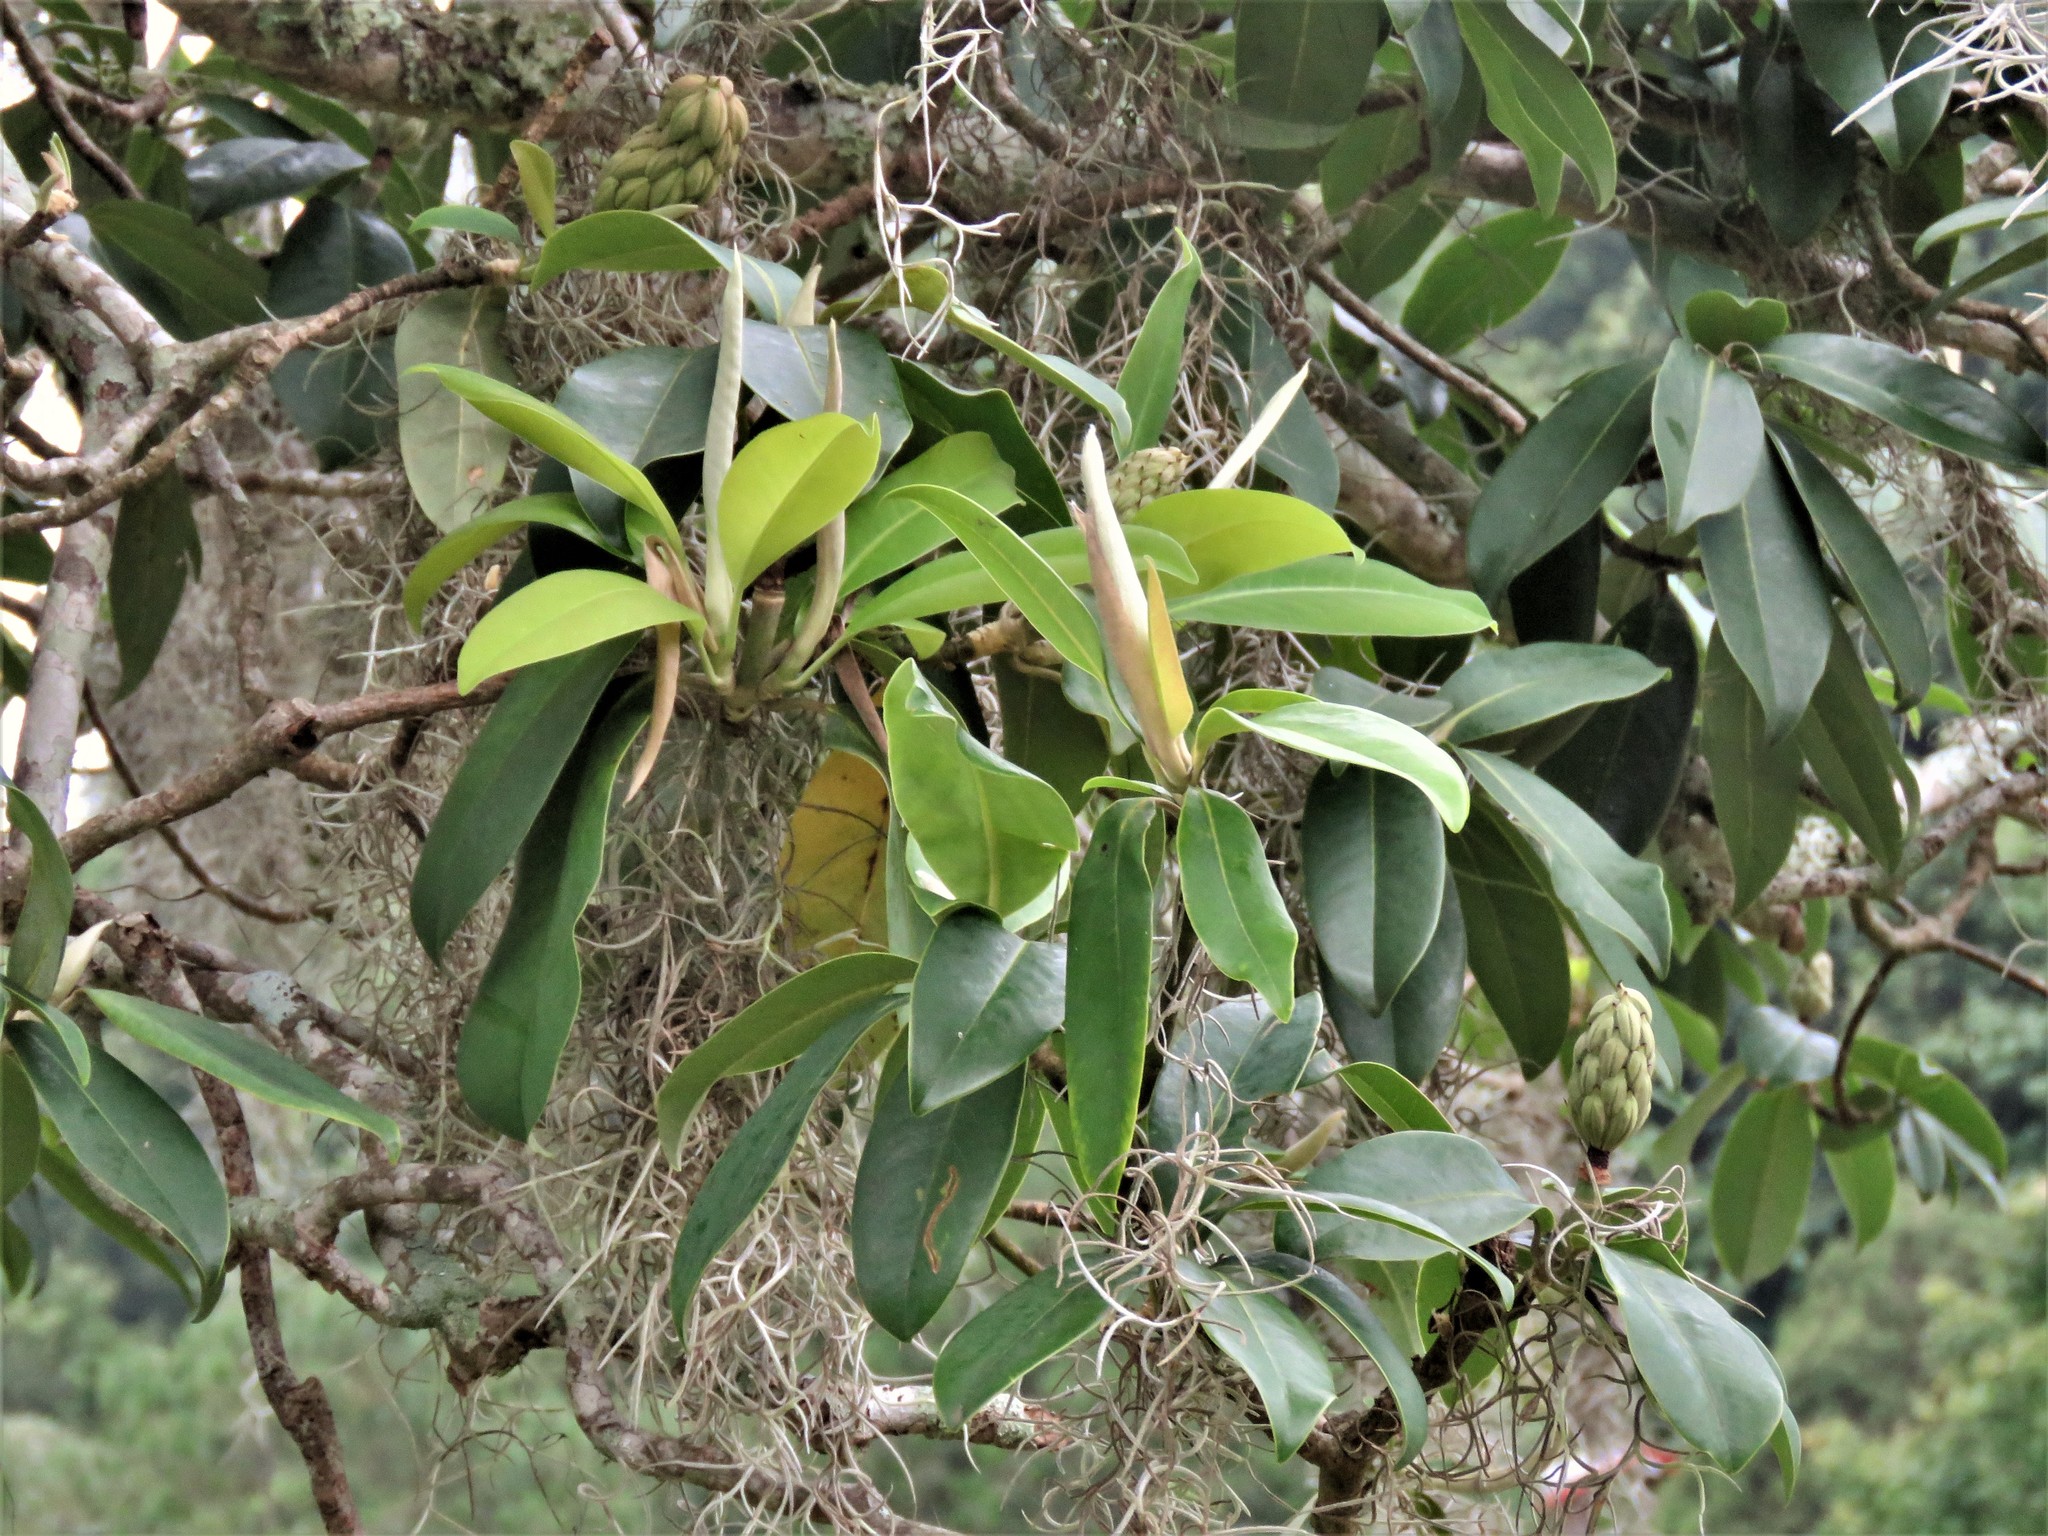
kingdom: Plantae
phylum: Tracheophyta
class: Magnoliopsida
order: Magnoliales
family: Magnoliaceae
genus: Magnolia
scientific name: Magnolia tamaulipana
